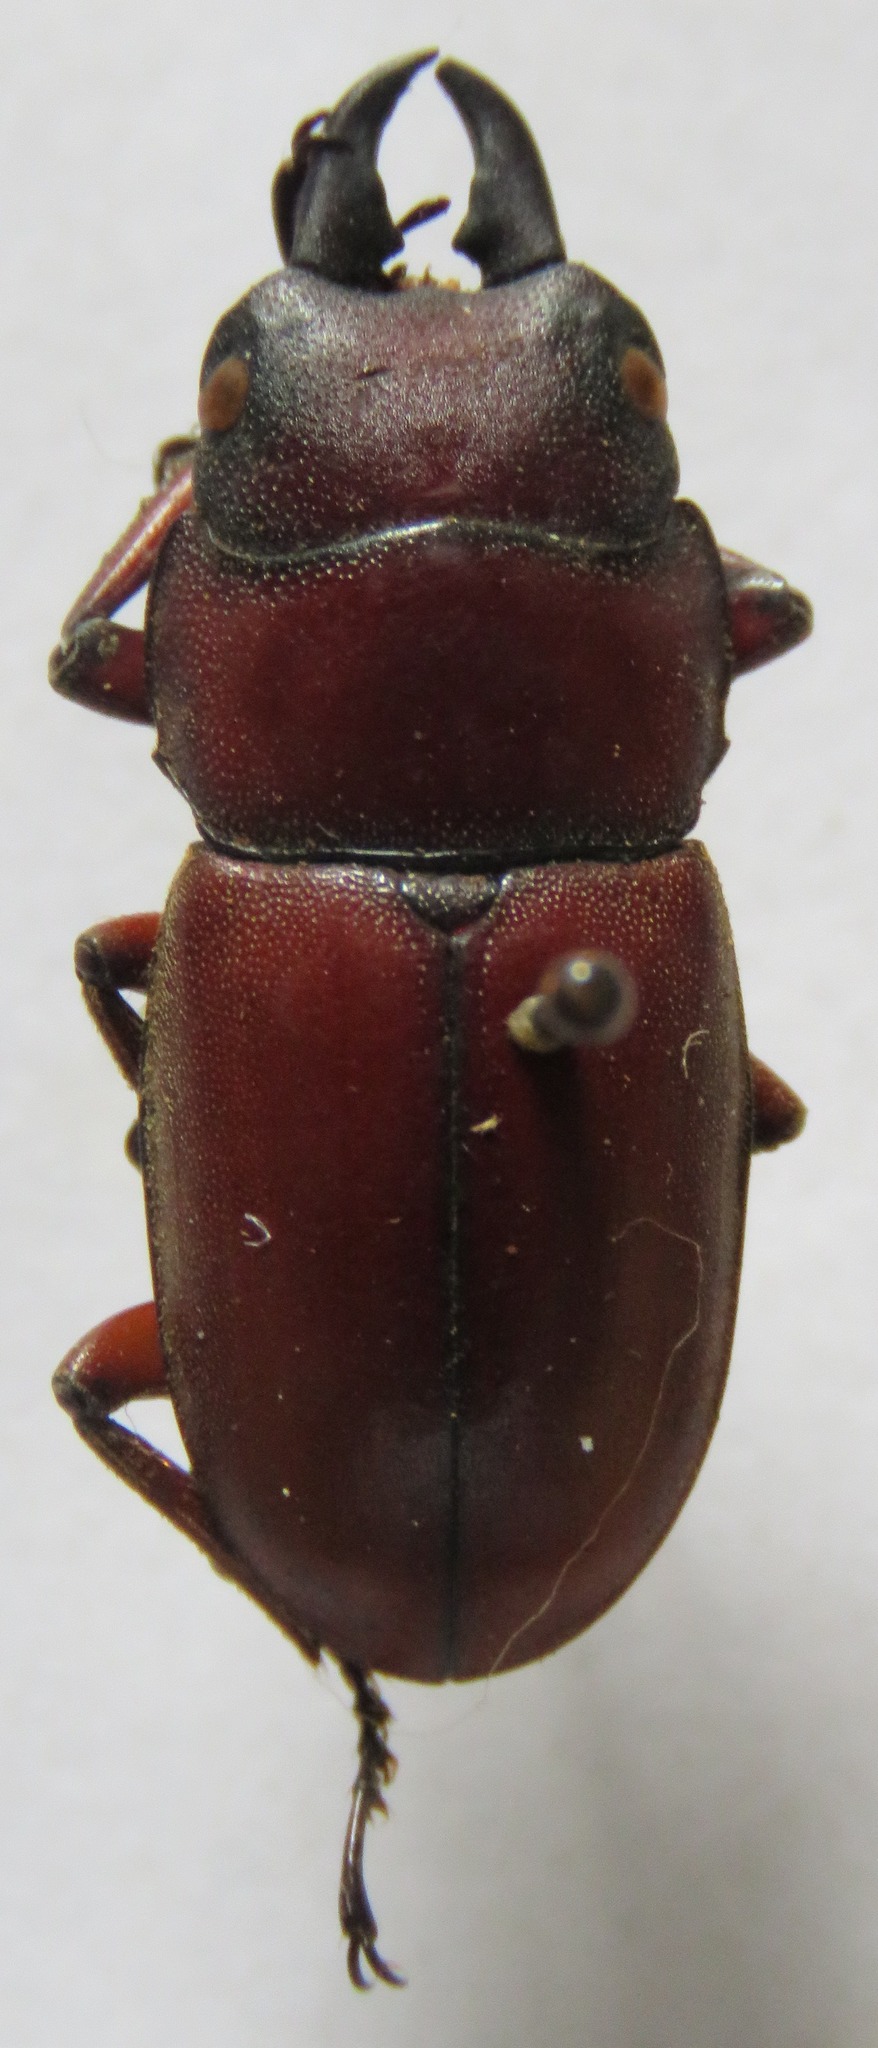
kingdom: Animalia
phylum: Arthropoda
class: Insecta
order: Coleoptera
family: Lucanidae
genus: Prosopocoilus
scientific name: Prosopocoilus romeoi
